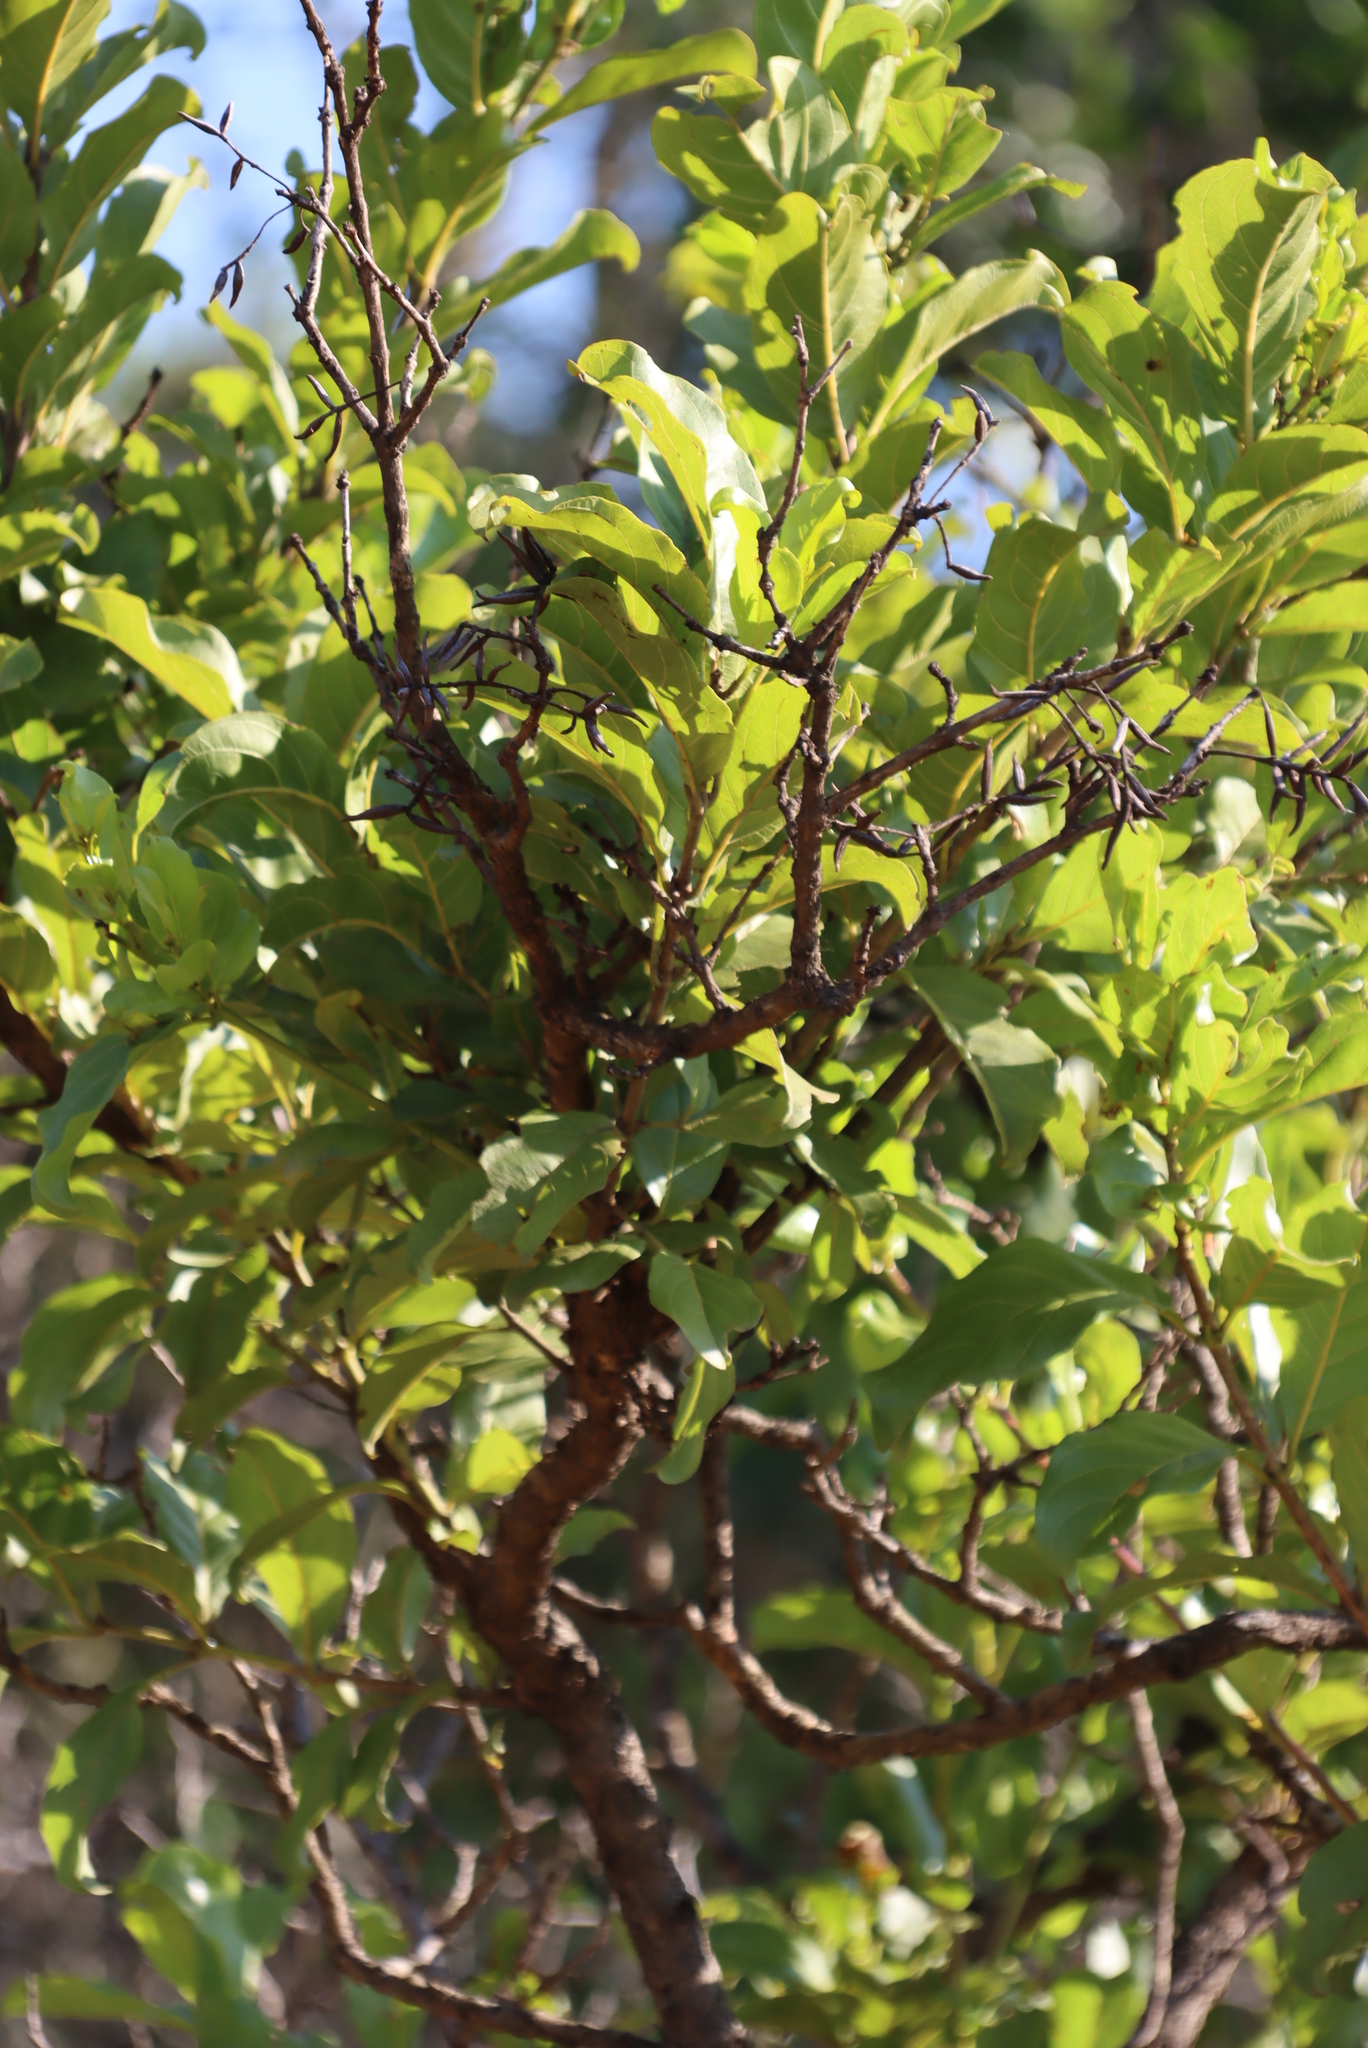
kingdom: Plantae
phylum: Tracheophyta
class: Magnoliopsida
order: Myrtales
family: Combretaceae
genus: Combretum
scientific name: Combretum apiculatum
